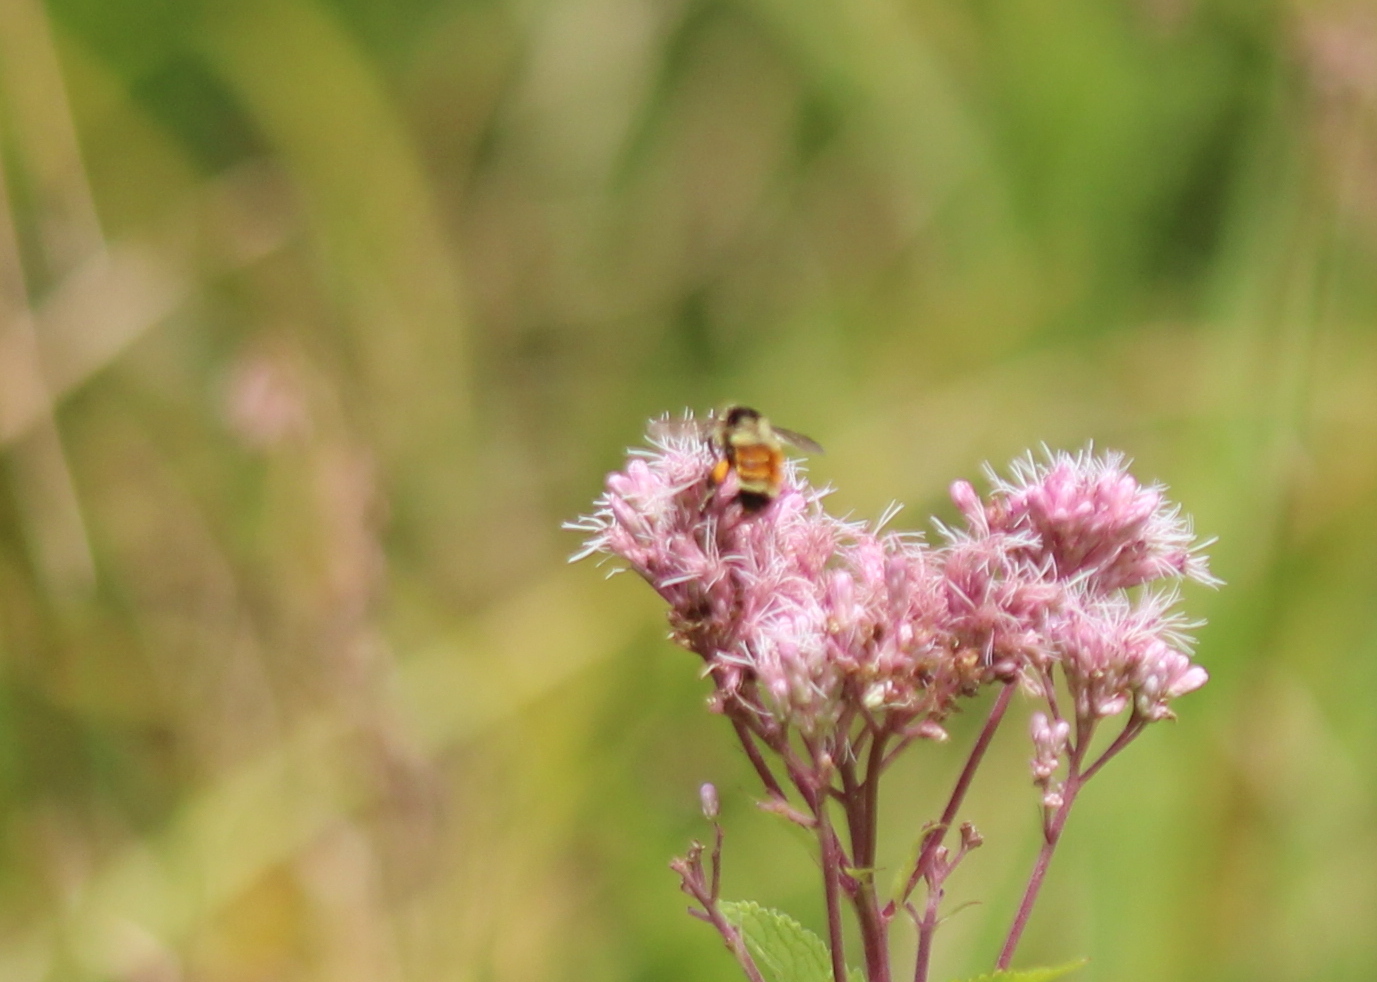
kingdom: Animalia
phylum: Arthropoda
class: Insecta
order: Hymenoptera
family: Apidae
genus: Bombus
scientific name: Bombus ternarius
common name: Tri-colored bumble bee
